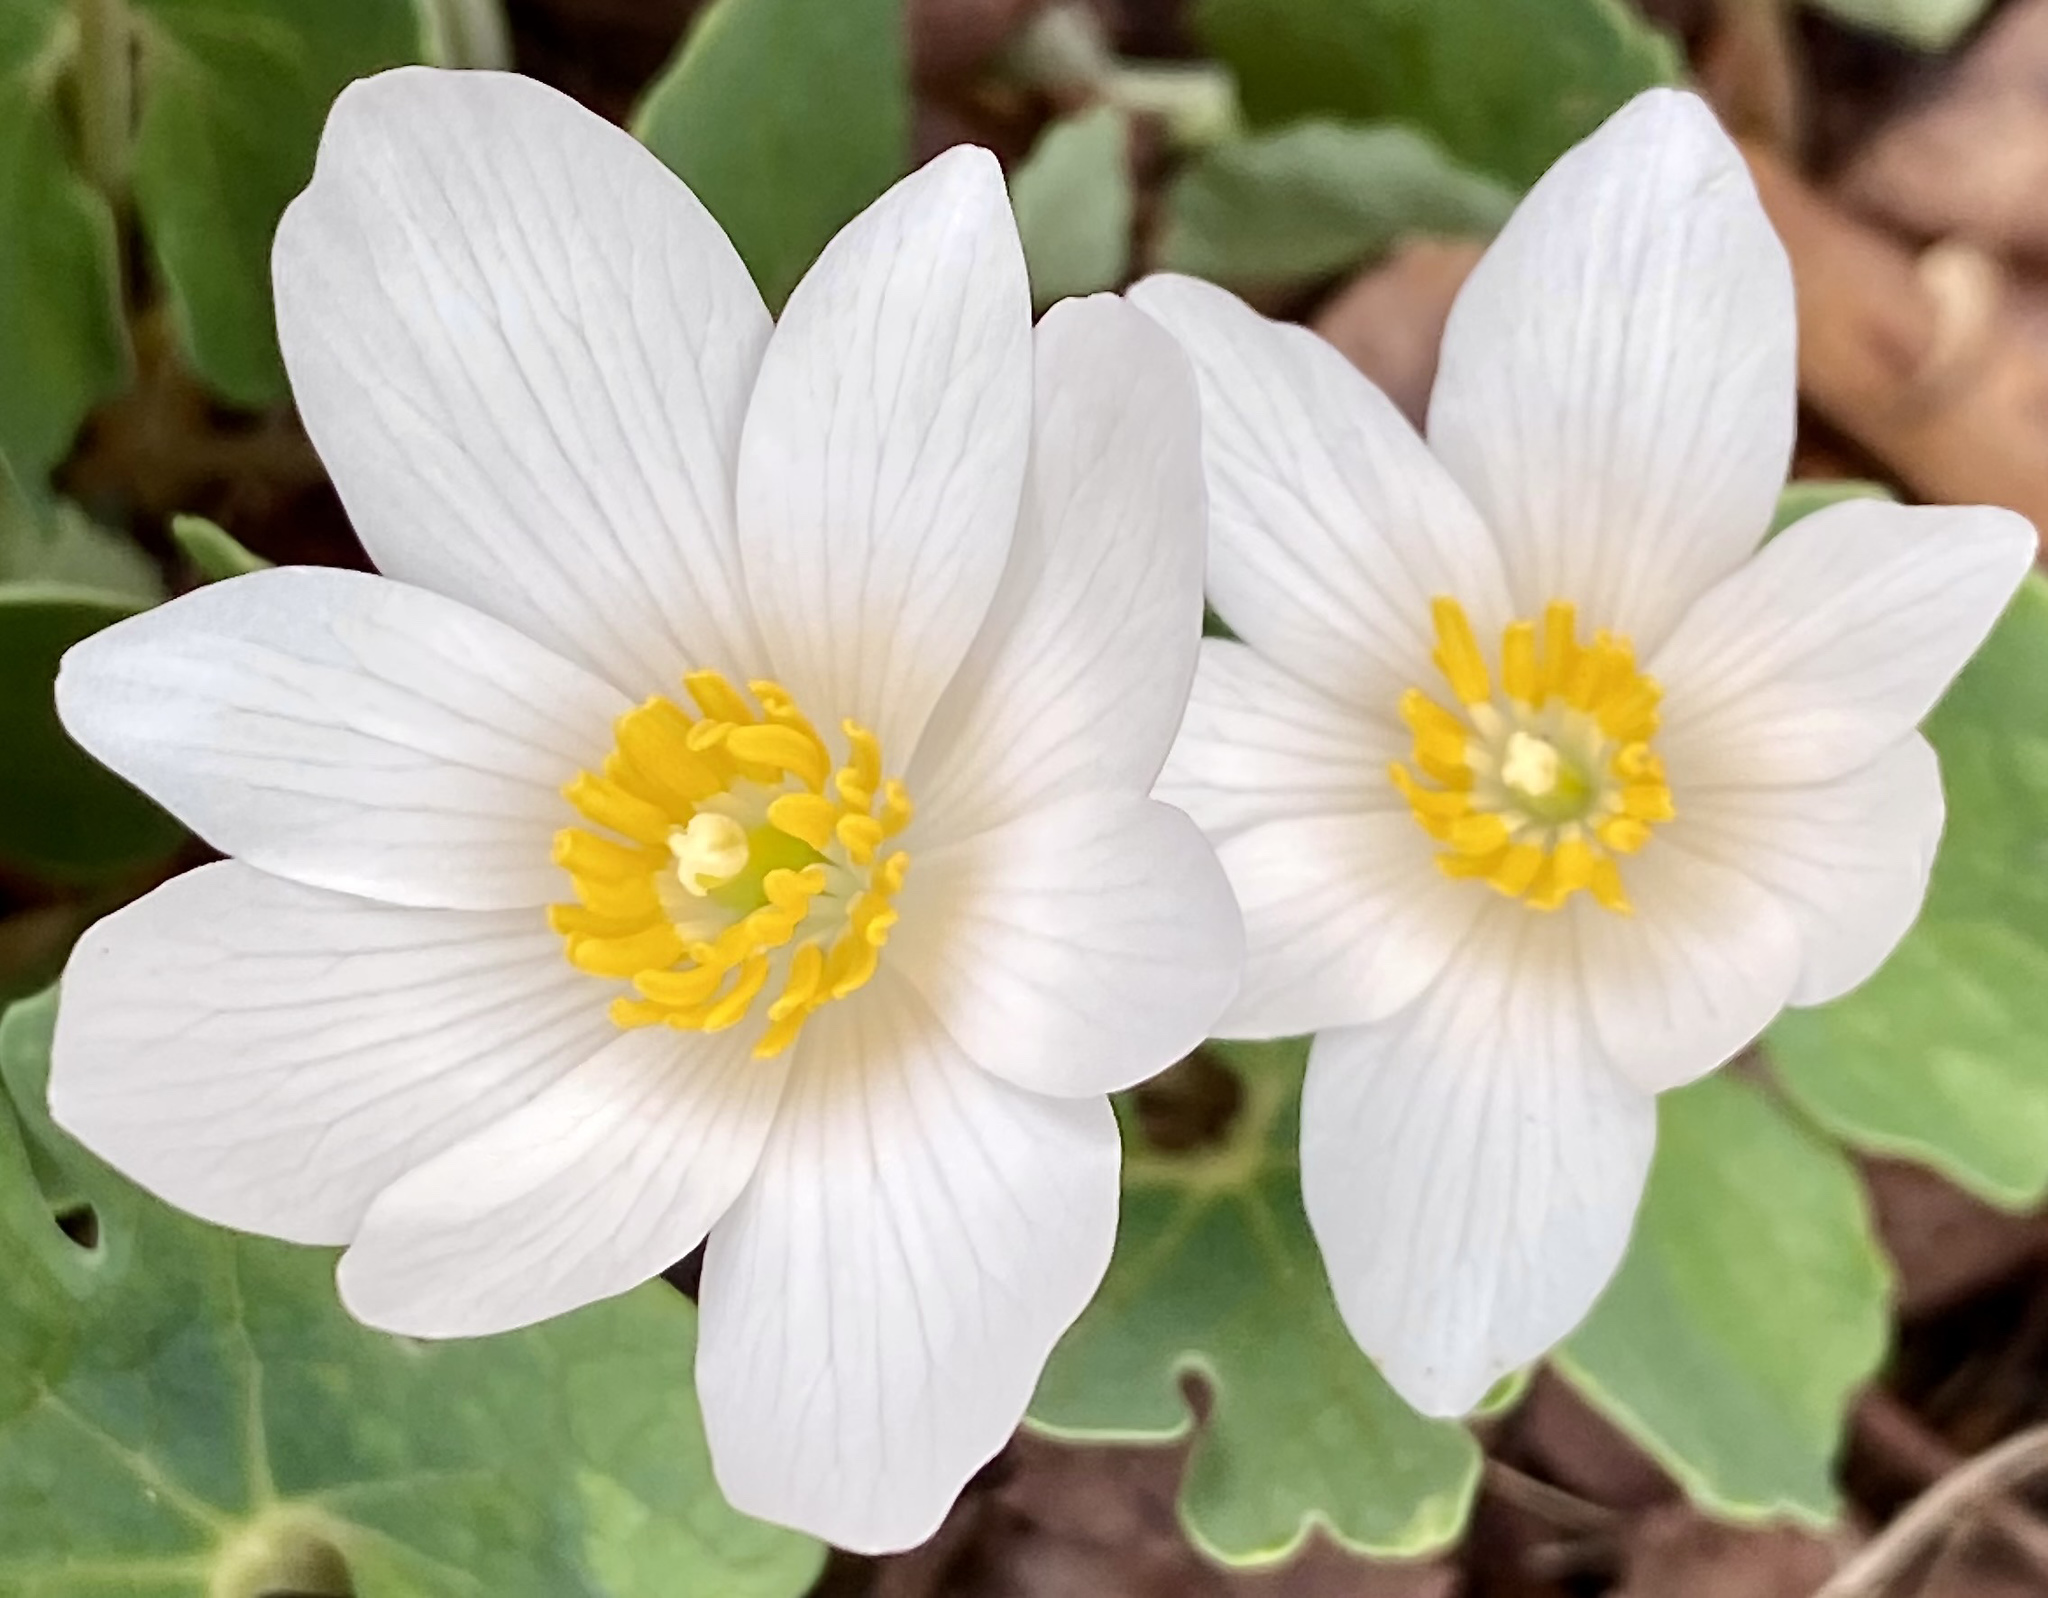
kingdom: Plantae
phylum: Tracheophyta
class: Magnoliopsida
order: Ranunculales
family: Papaveraceae
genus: Sanguinaria
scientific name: Sanguinaria canadensis
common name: Bloodroot
